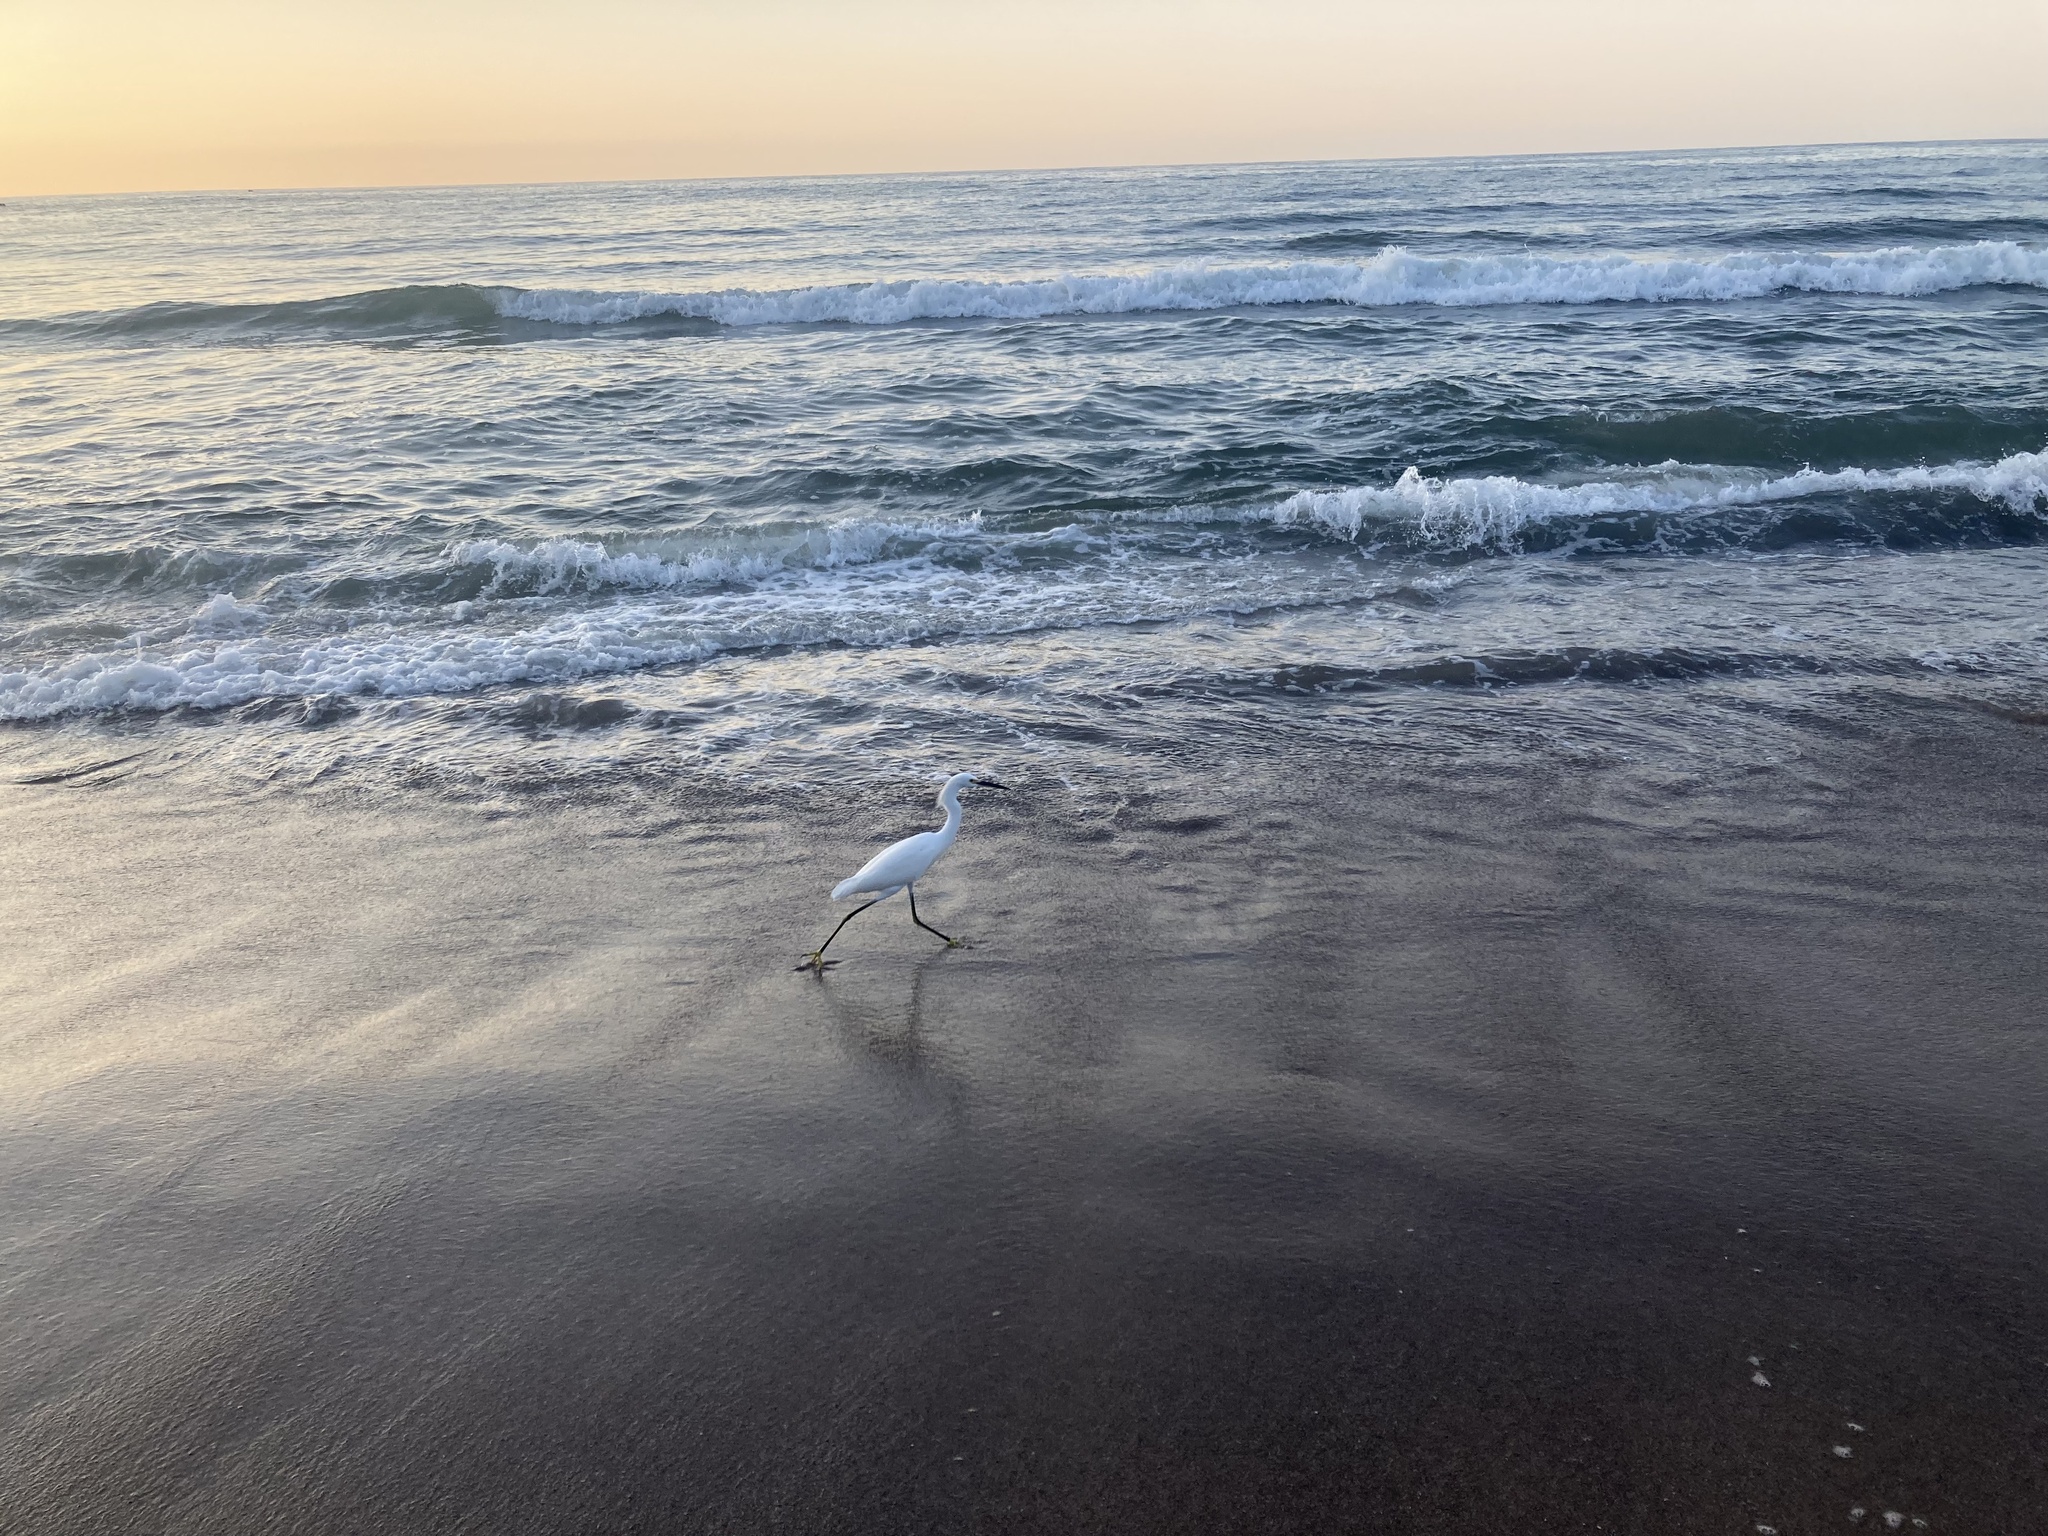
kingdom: Animalia
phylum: Chordata
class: Aves
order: Pelecaniformes
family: Ardeidae
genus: Egretta
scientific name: Egretta thula
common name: Snowy egret
